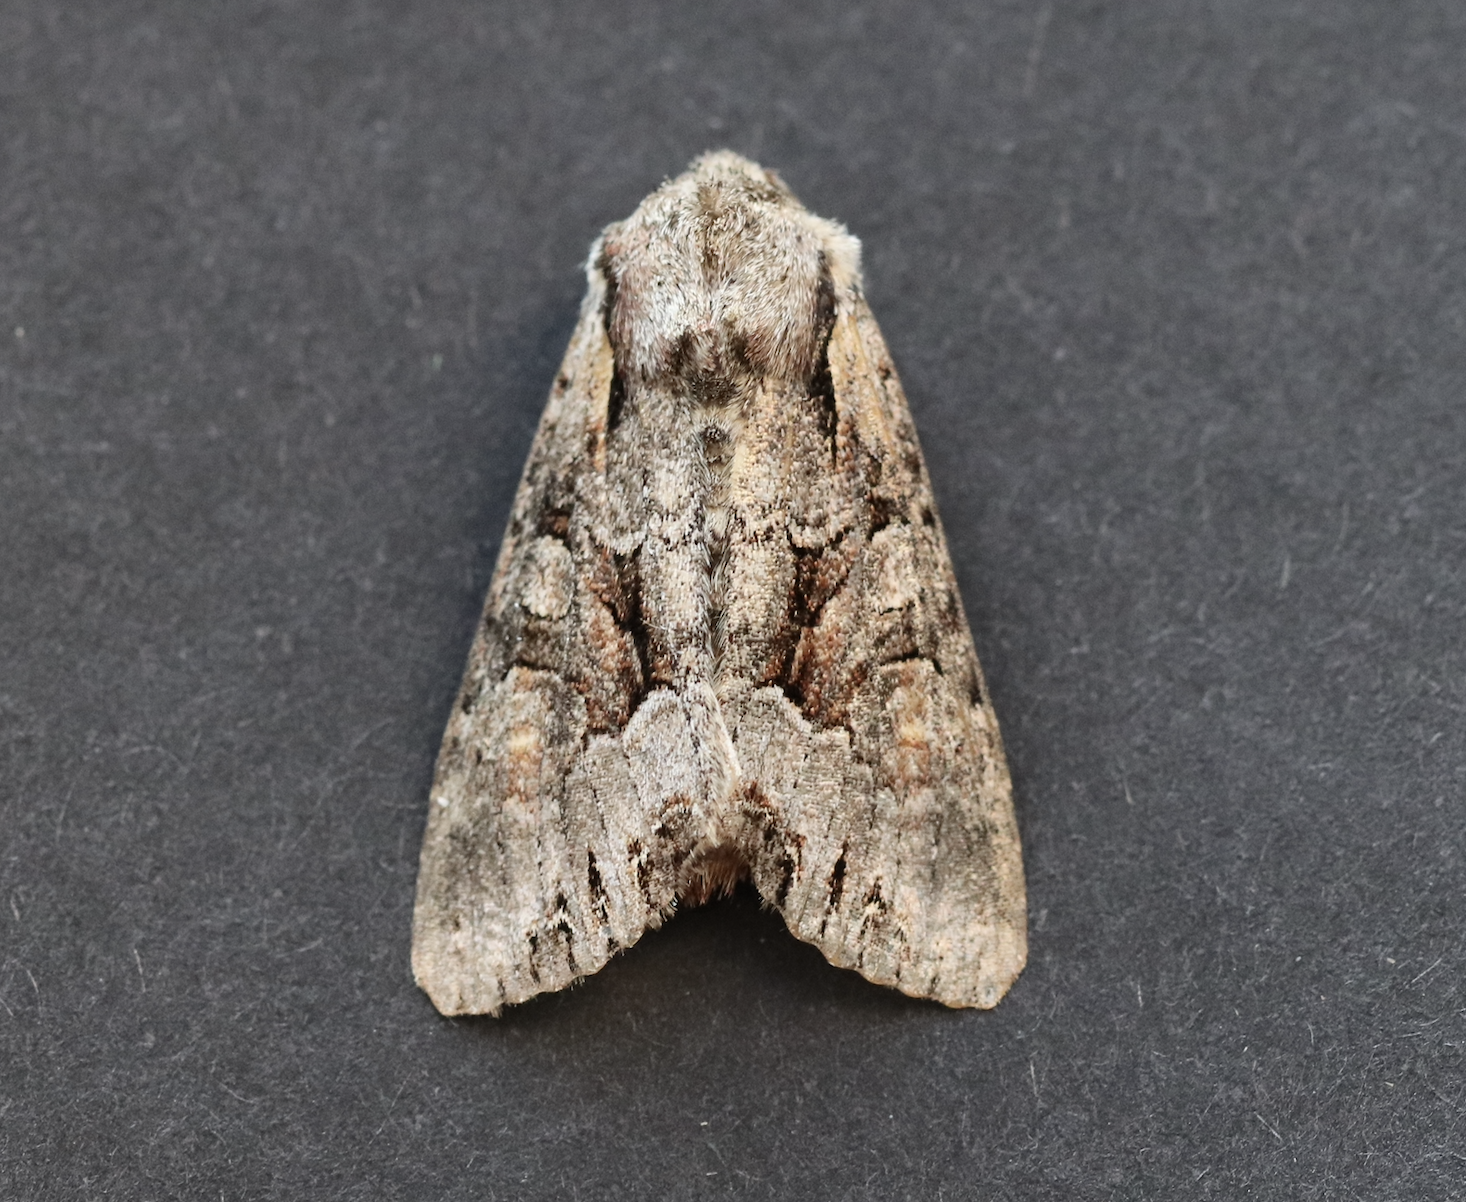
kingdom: Animalia
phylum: Arthropoda
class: Insecta
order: Lepidoptera
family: Noctuidae
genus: Lacanobia
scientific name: Lacanobia w-latinum
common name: Light brocade
